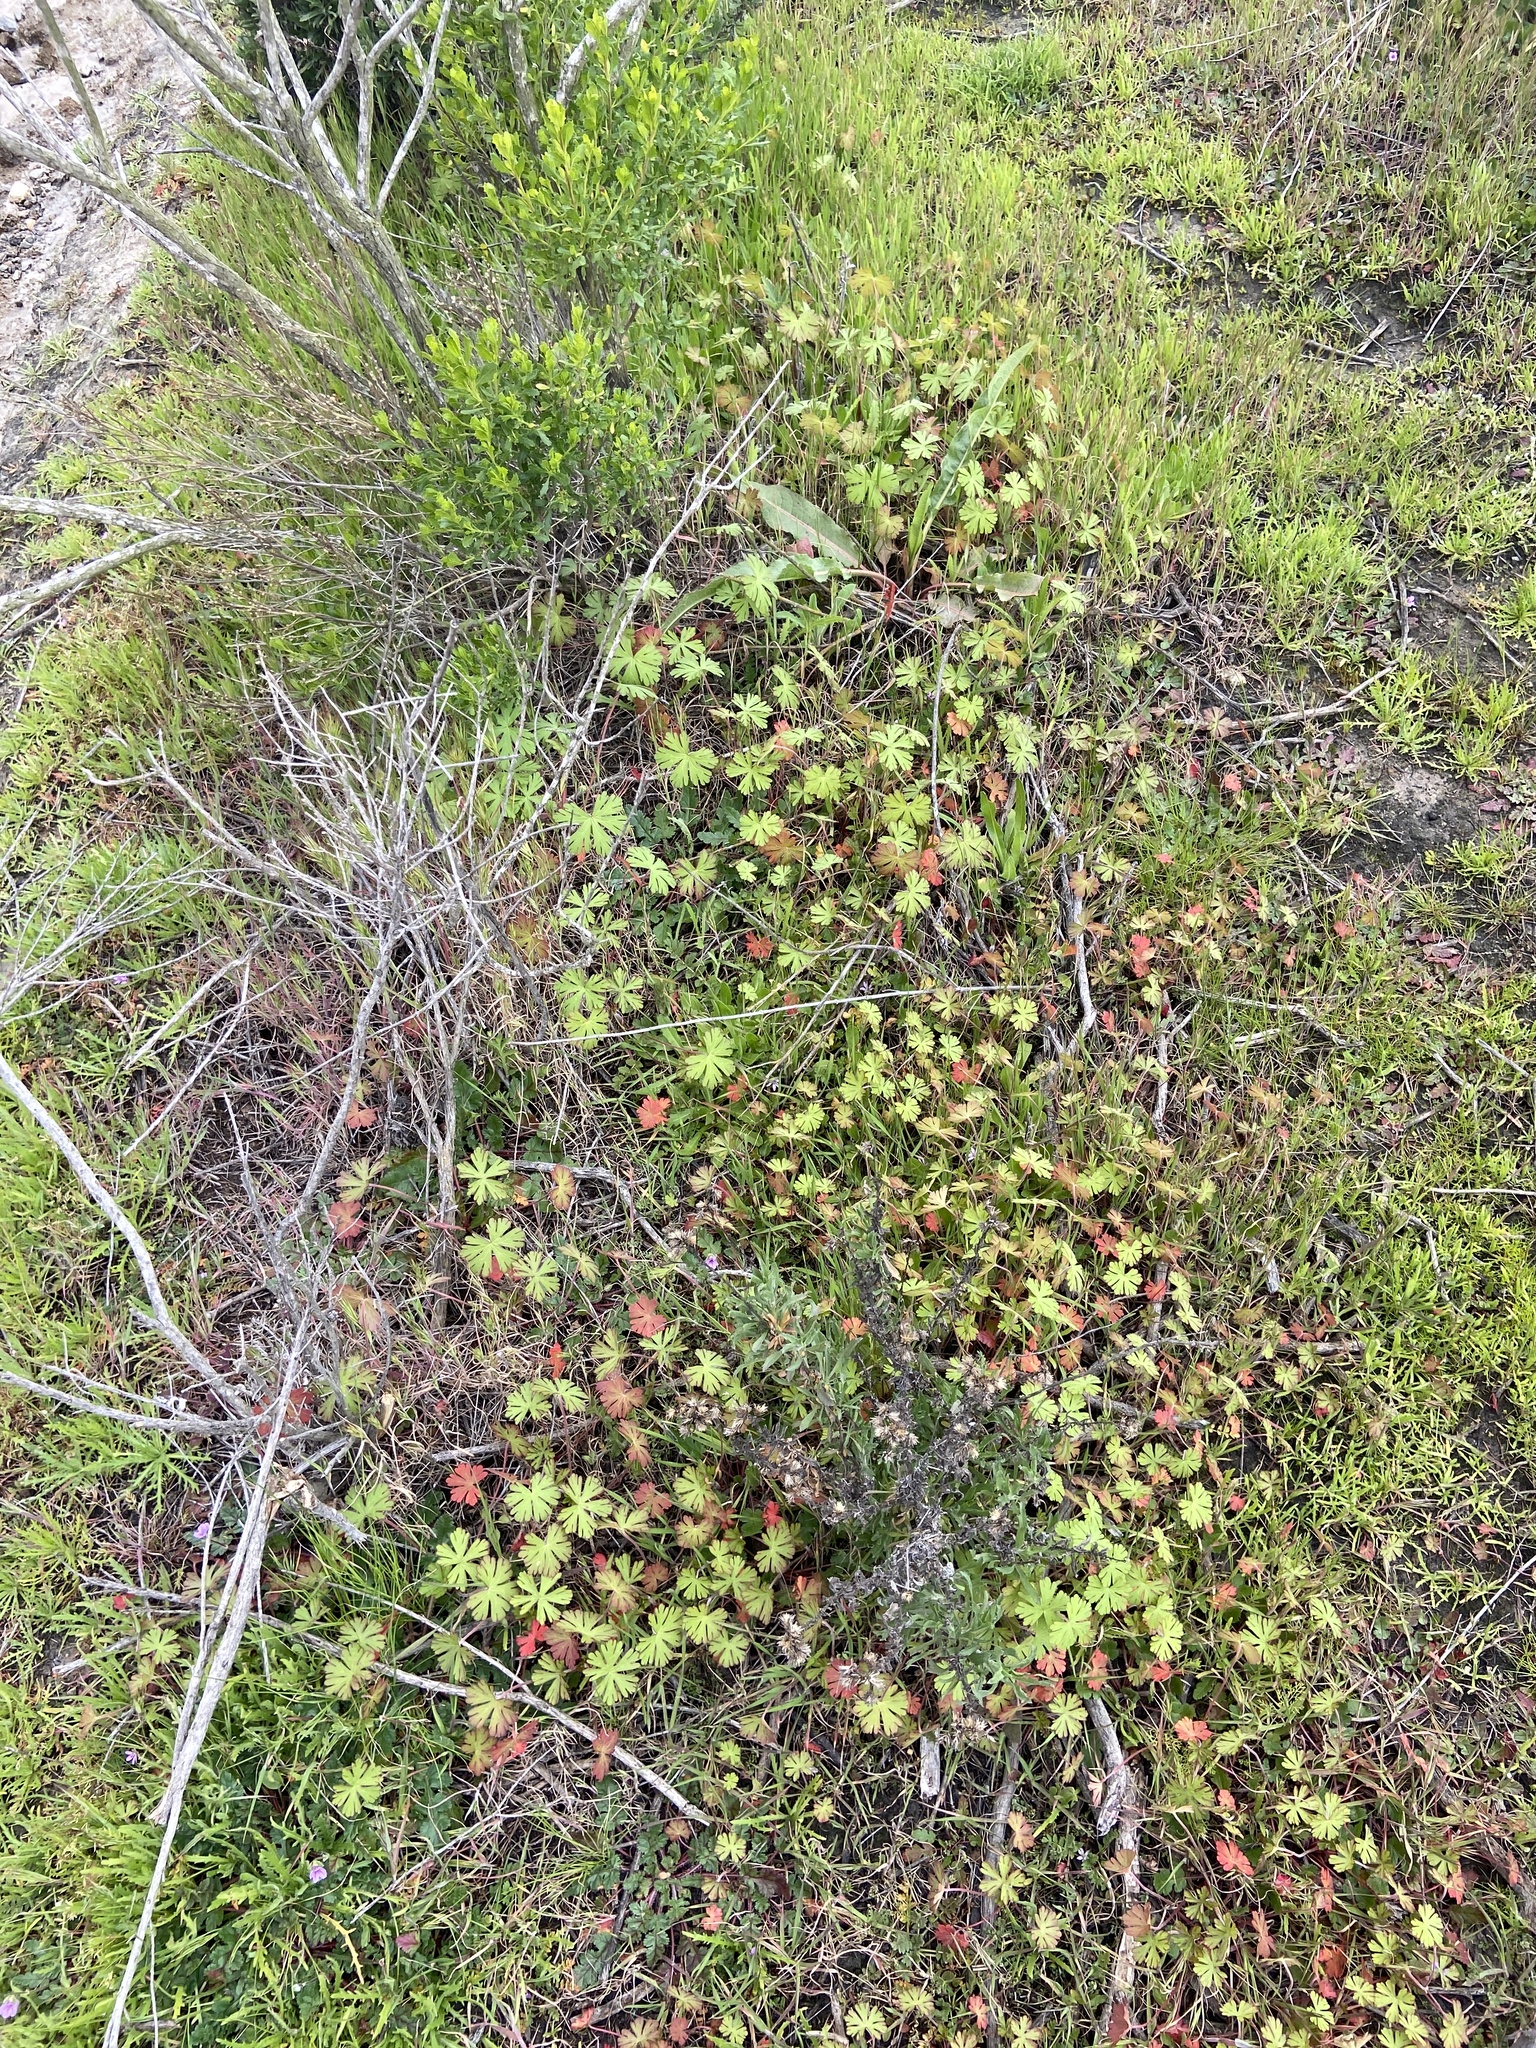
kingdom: Plantae
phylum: Tracheophyta
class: Magnoliopsida
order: Geraniales
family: Geraniaceae
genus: Geranium
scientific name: Geranium
